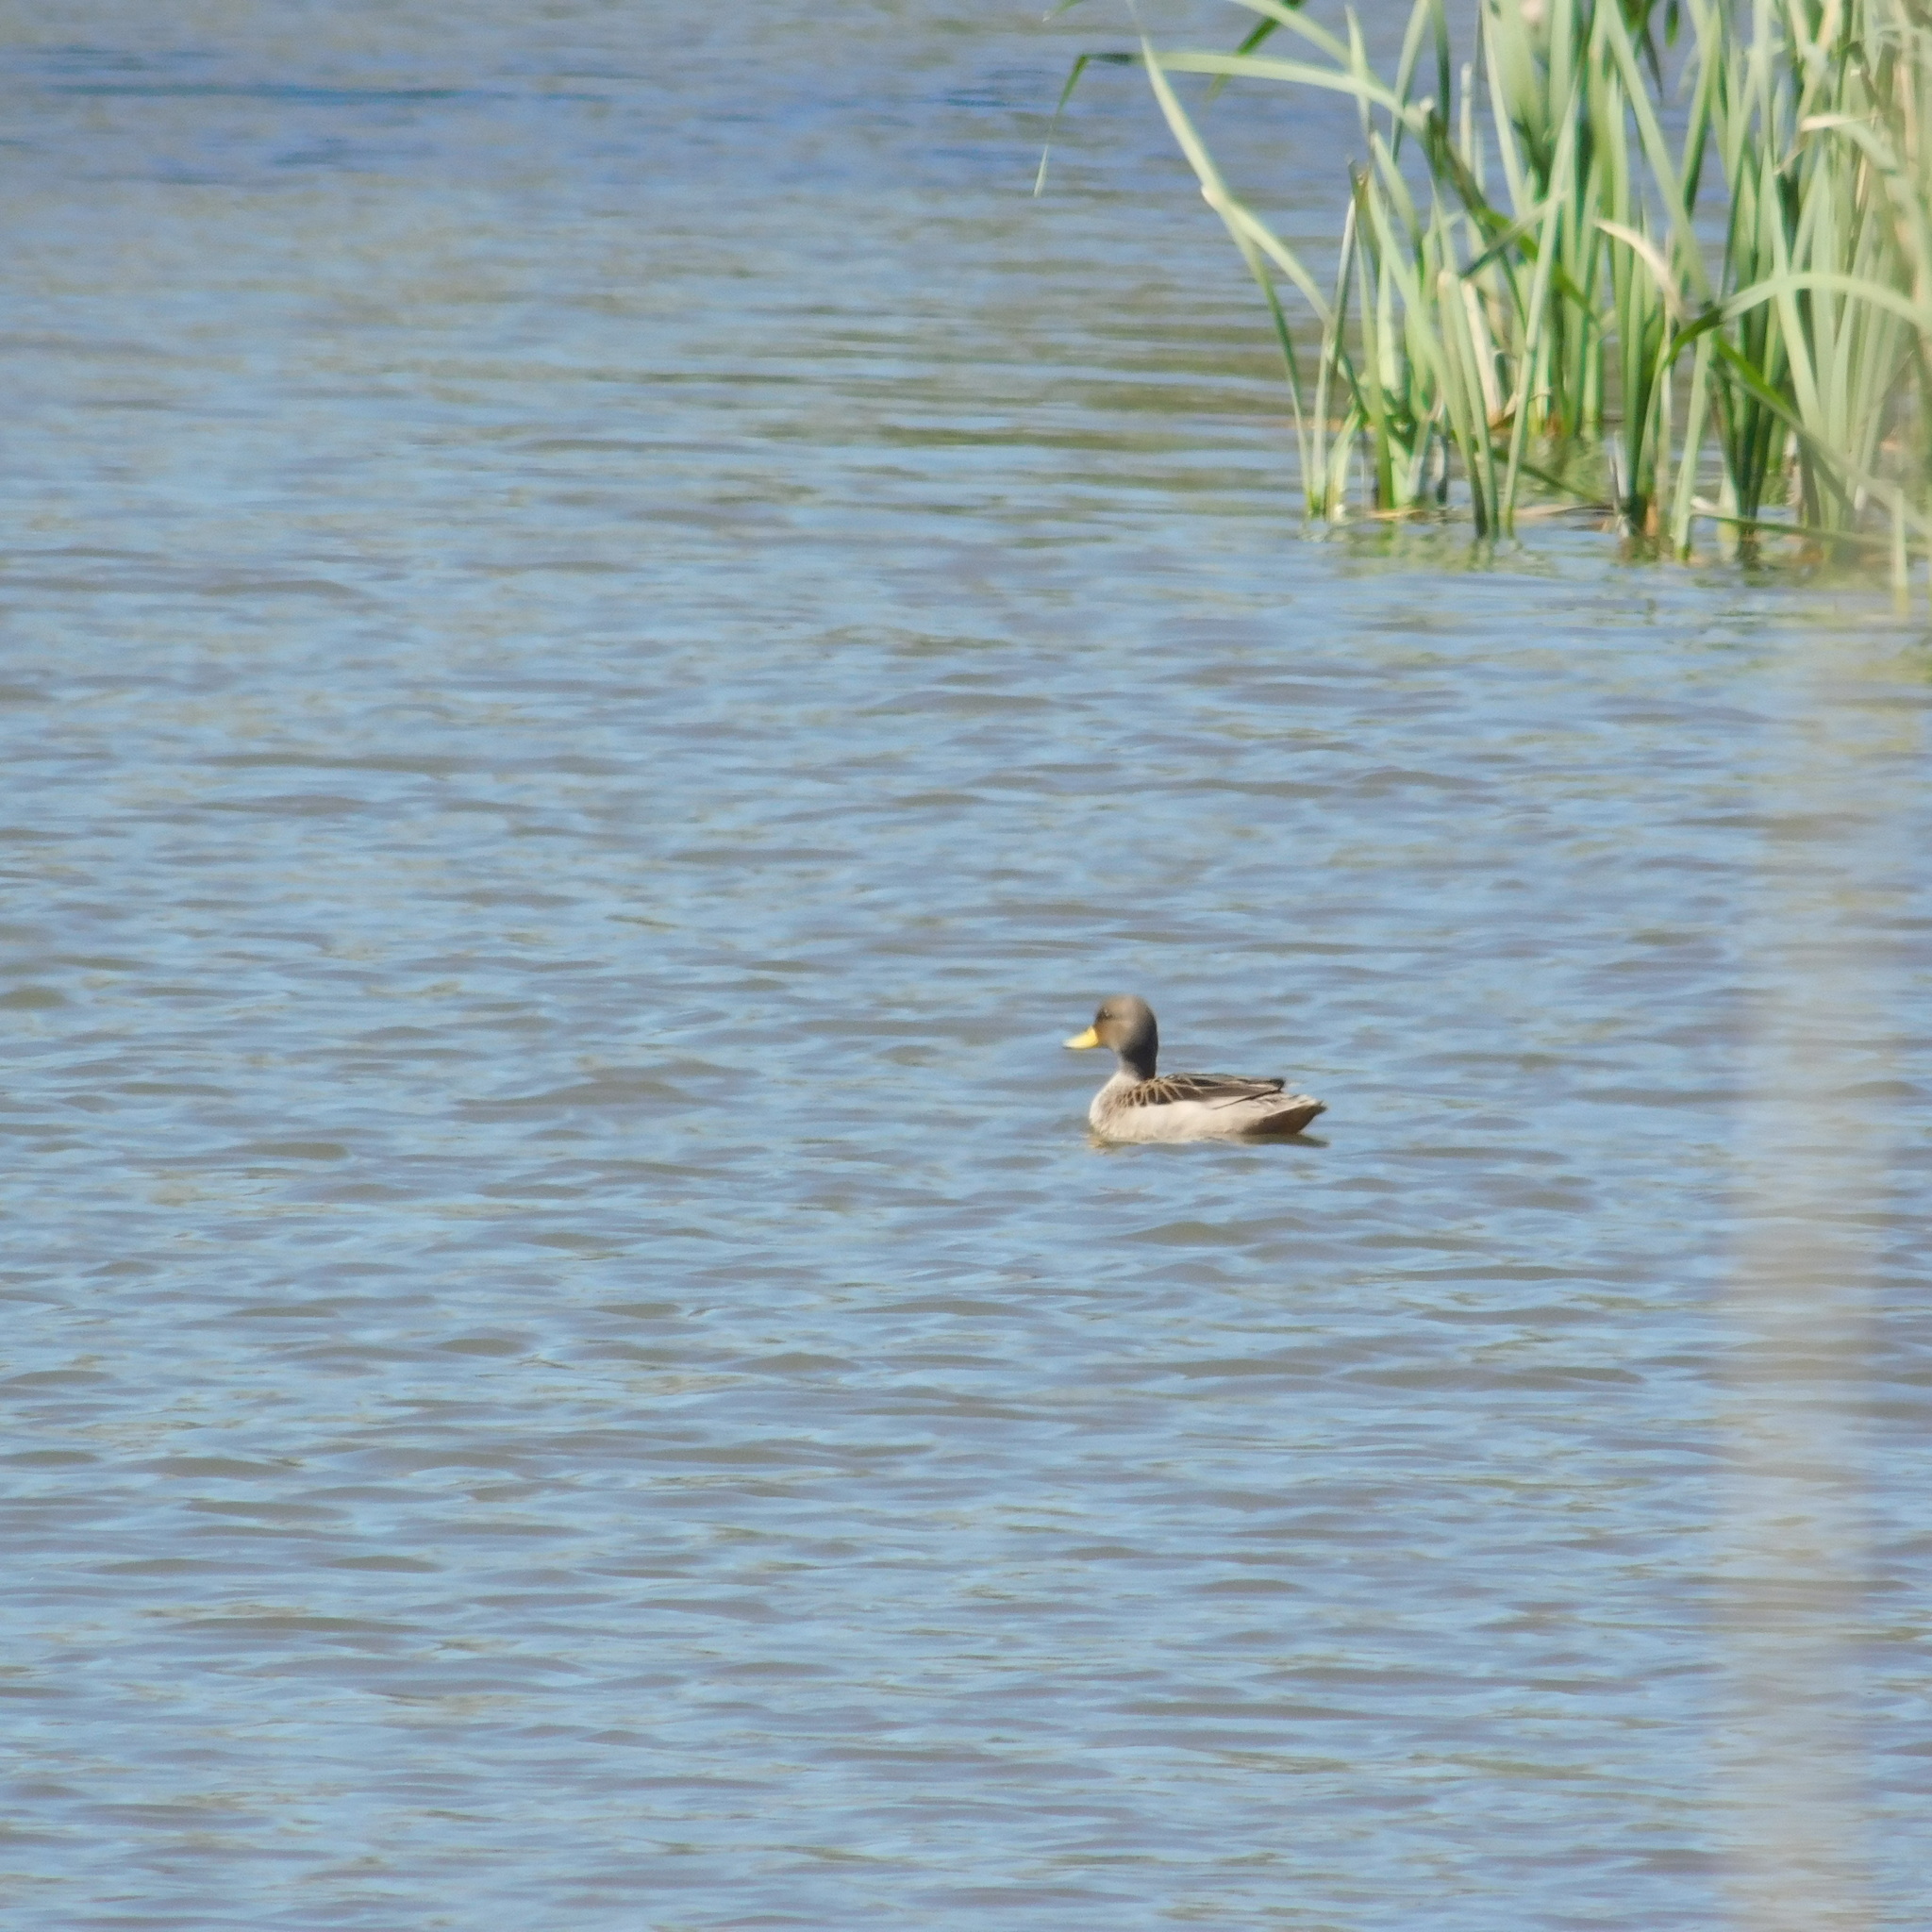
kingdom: Animalia
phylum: Chordata
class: Aves
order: Anseriformes
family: Anatidae
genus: Anas
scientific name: Anas flavirostris
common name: Yellow-billed teal
